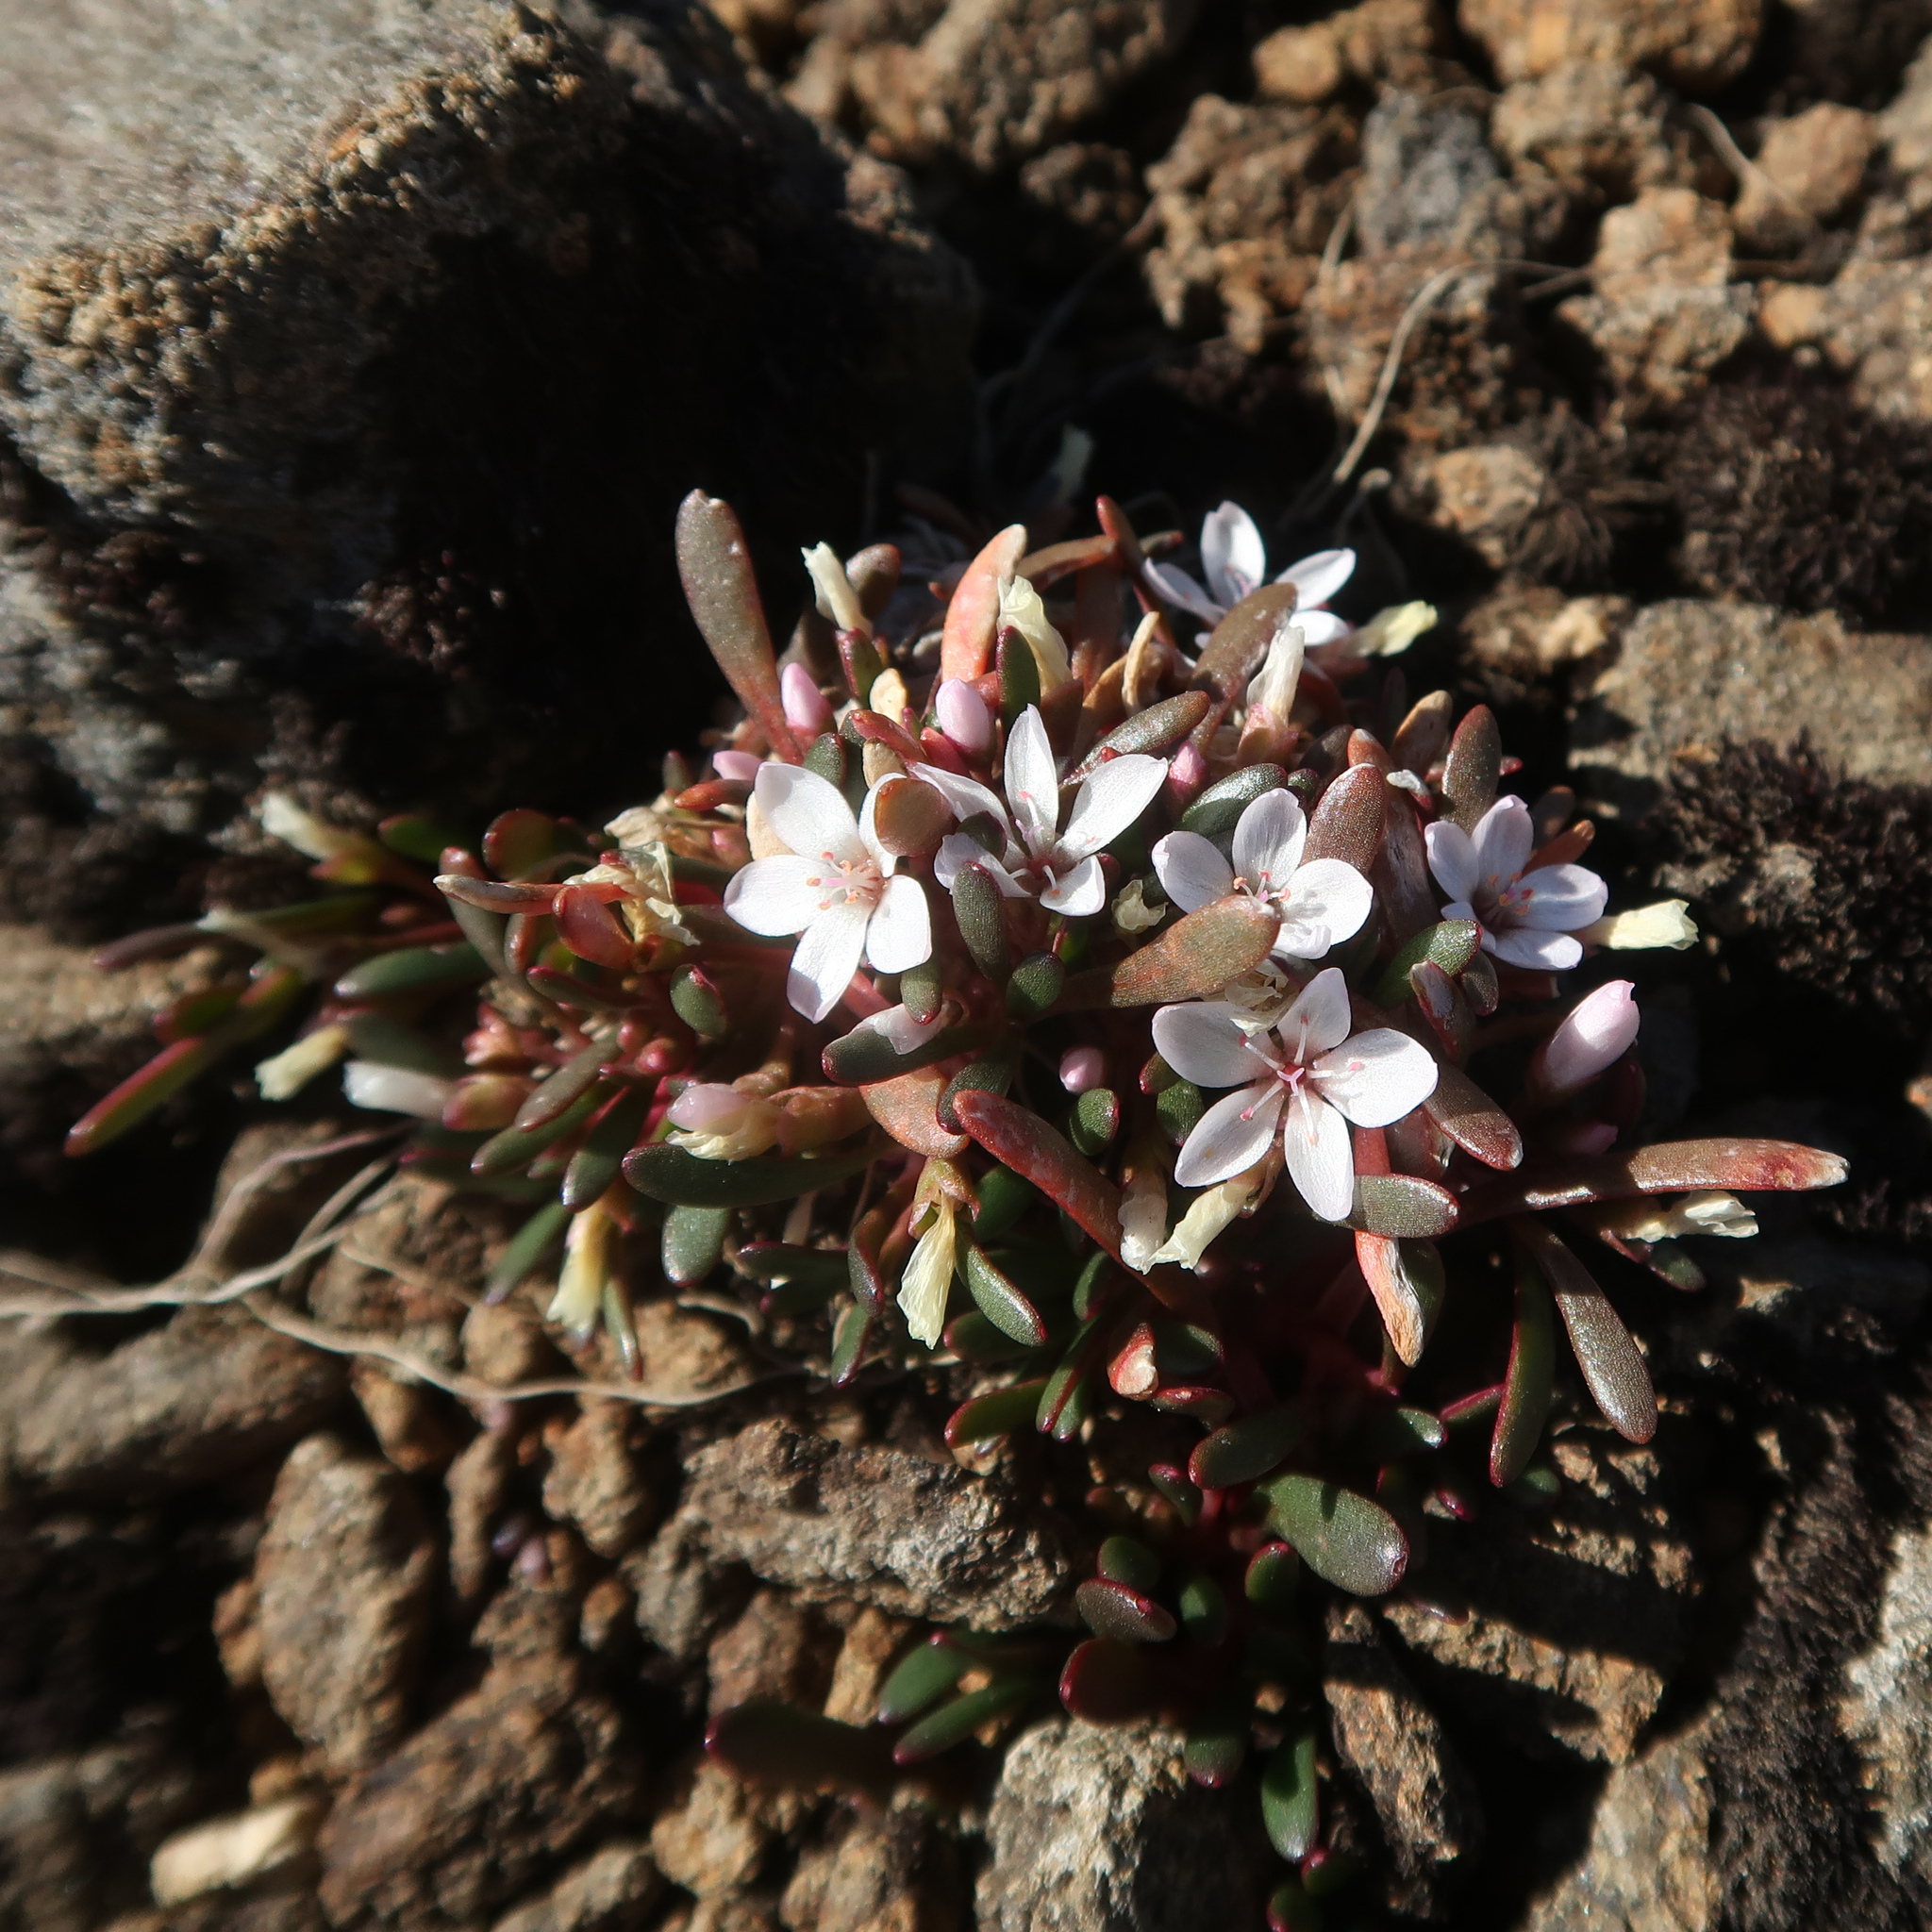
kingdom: Plantae
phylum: Tracheophyta
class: Magnoliopsida
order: Caryophyllales
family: Montiaceae
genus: Montia
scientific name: Montia australasica
